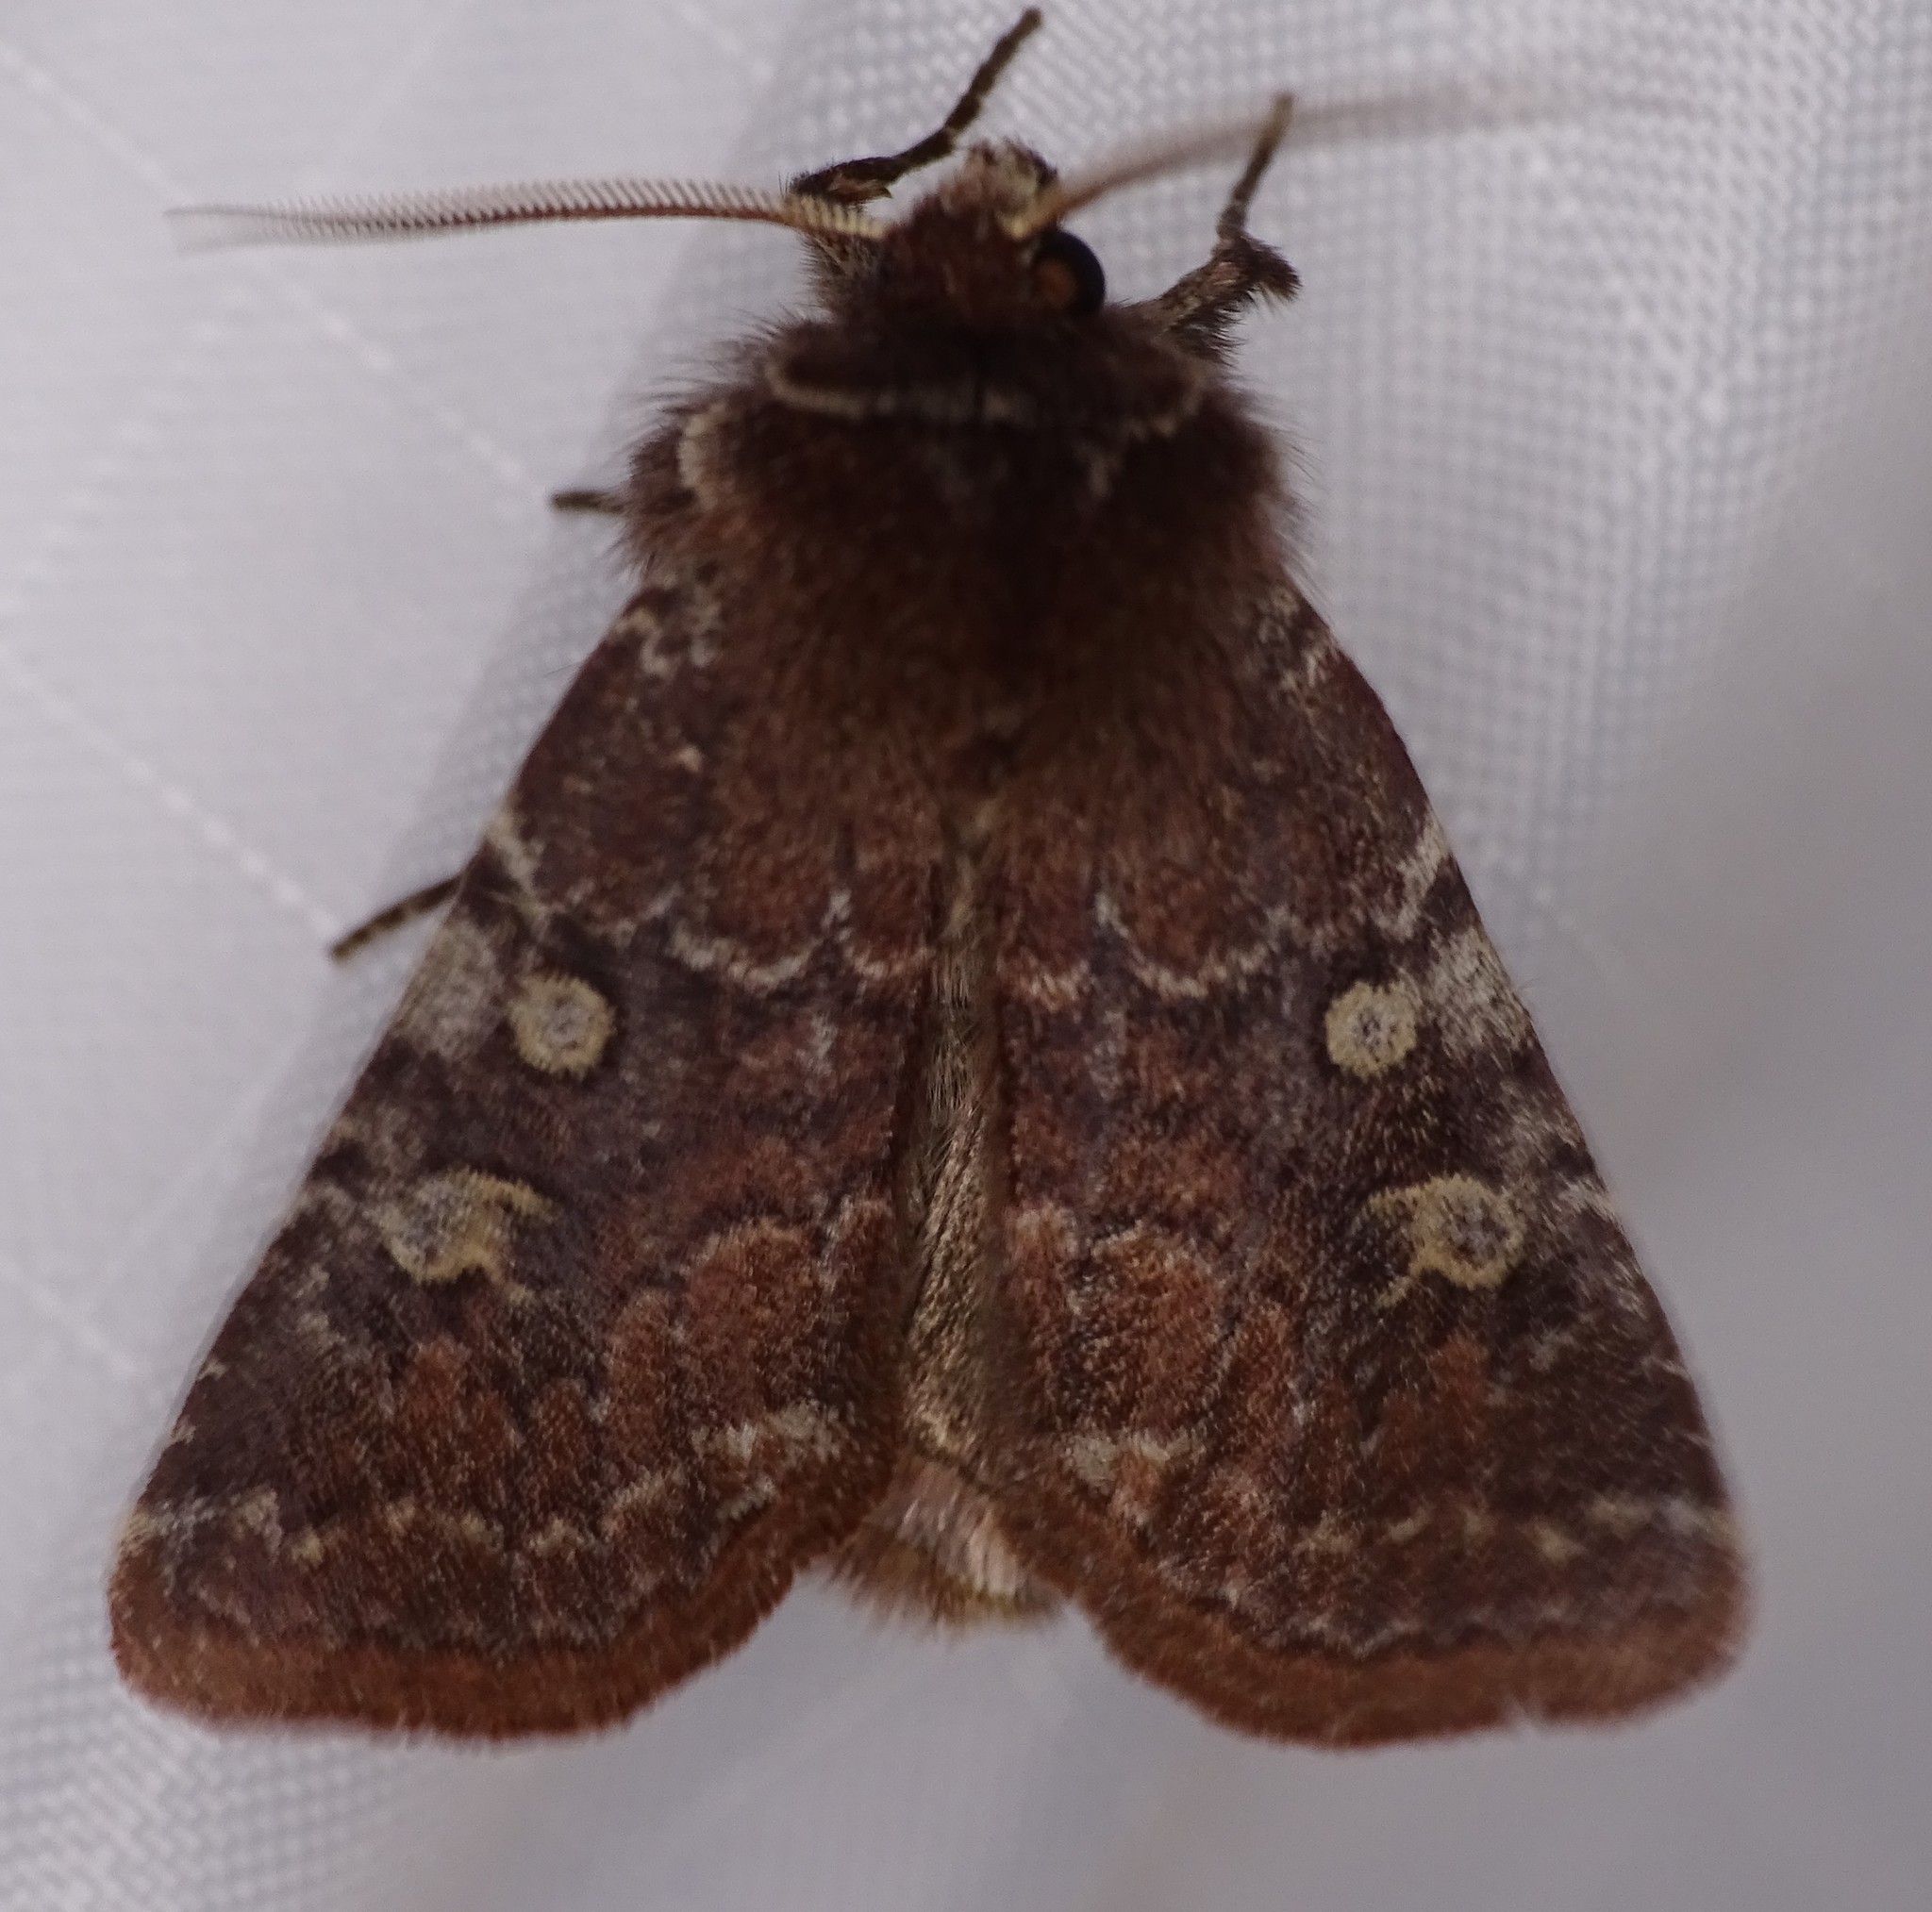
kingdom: Animalia
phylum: Arthropoda
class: Insecta
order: Lepidoptera
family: Noctuidae
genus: Cerastis
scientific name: Cerastis tenebrifera
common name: Reddish speckled dart
